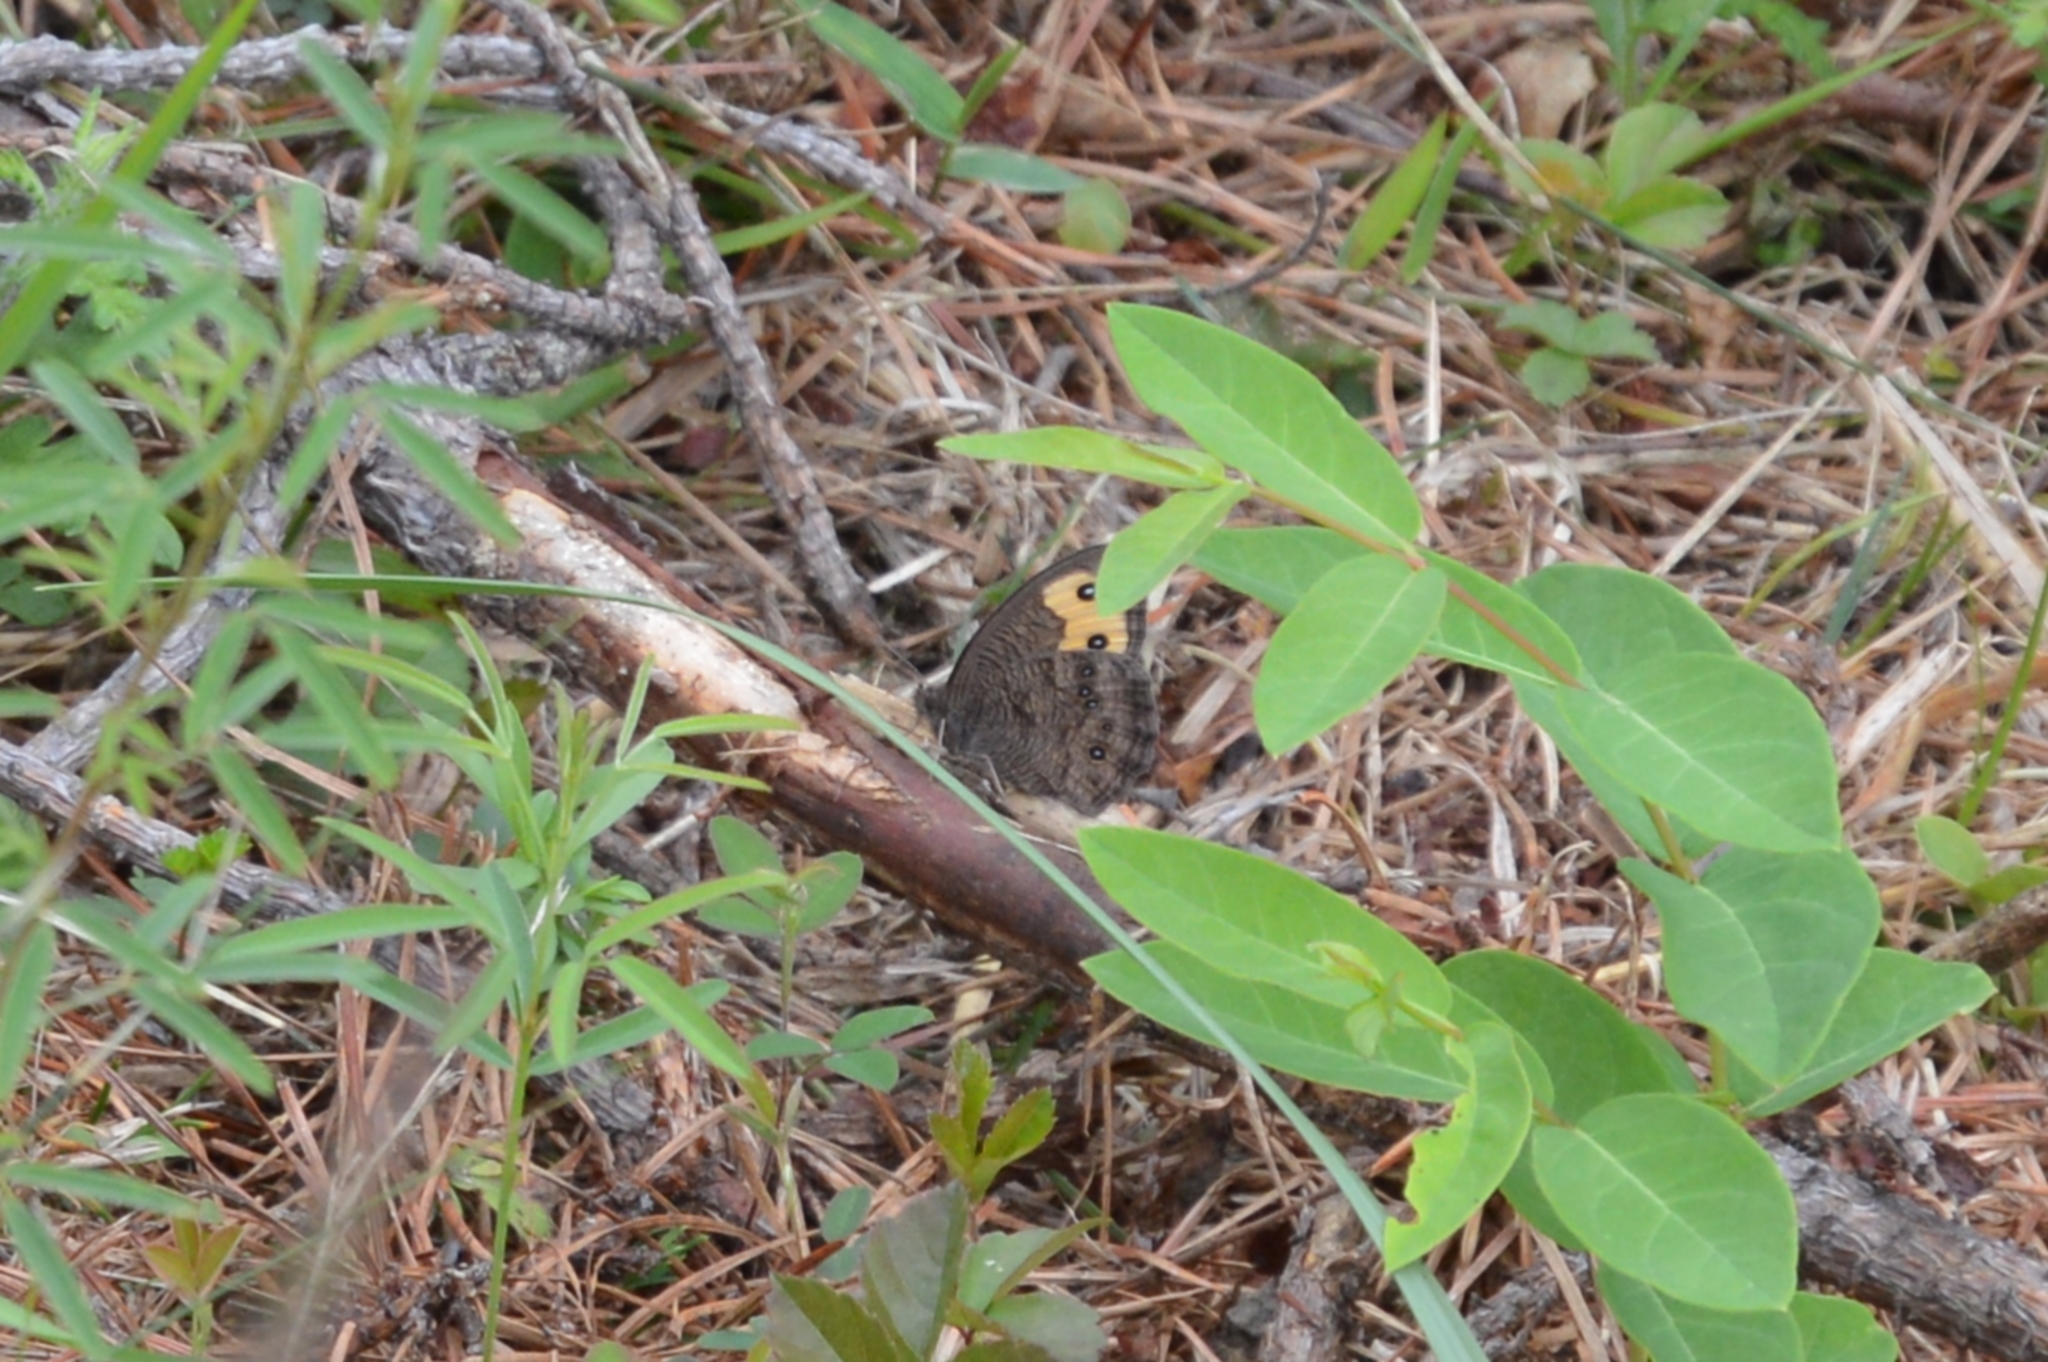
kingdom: Animalia
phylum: Arthropoda
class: Insecta
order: Lepidoptera
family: Nymphalidae
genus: Cercyonis
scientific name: Cercyonis pegala
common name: Common wood-nymph
